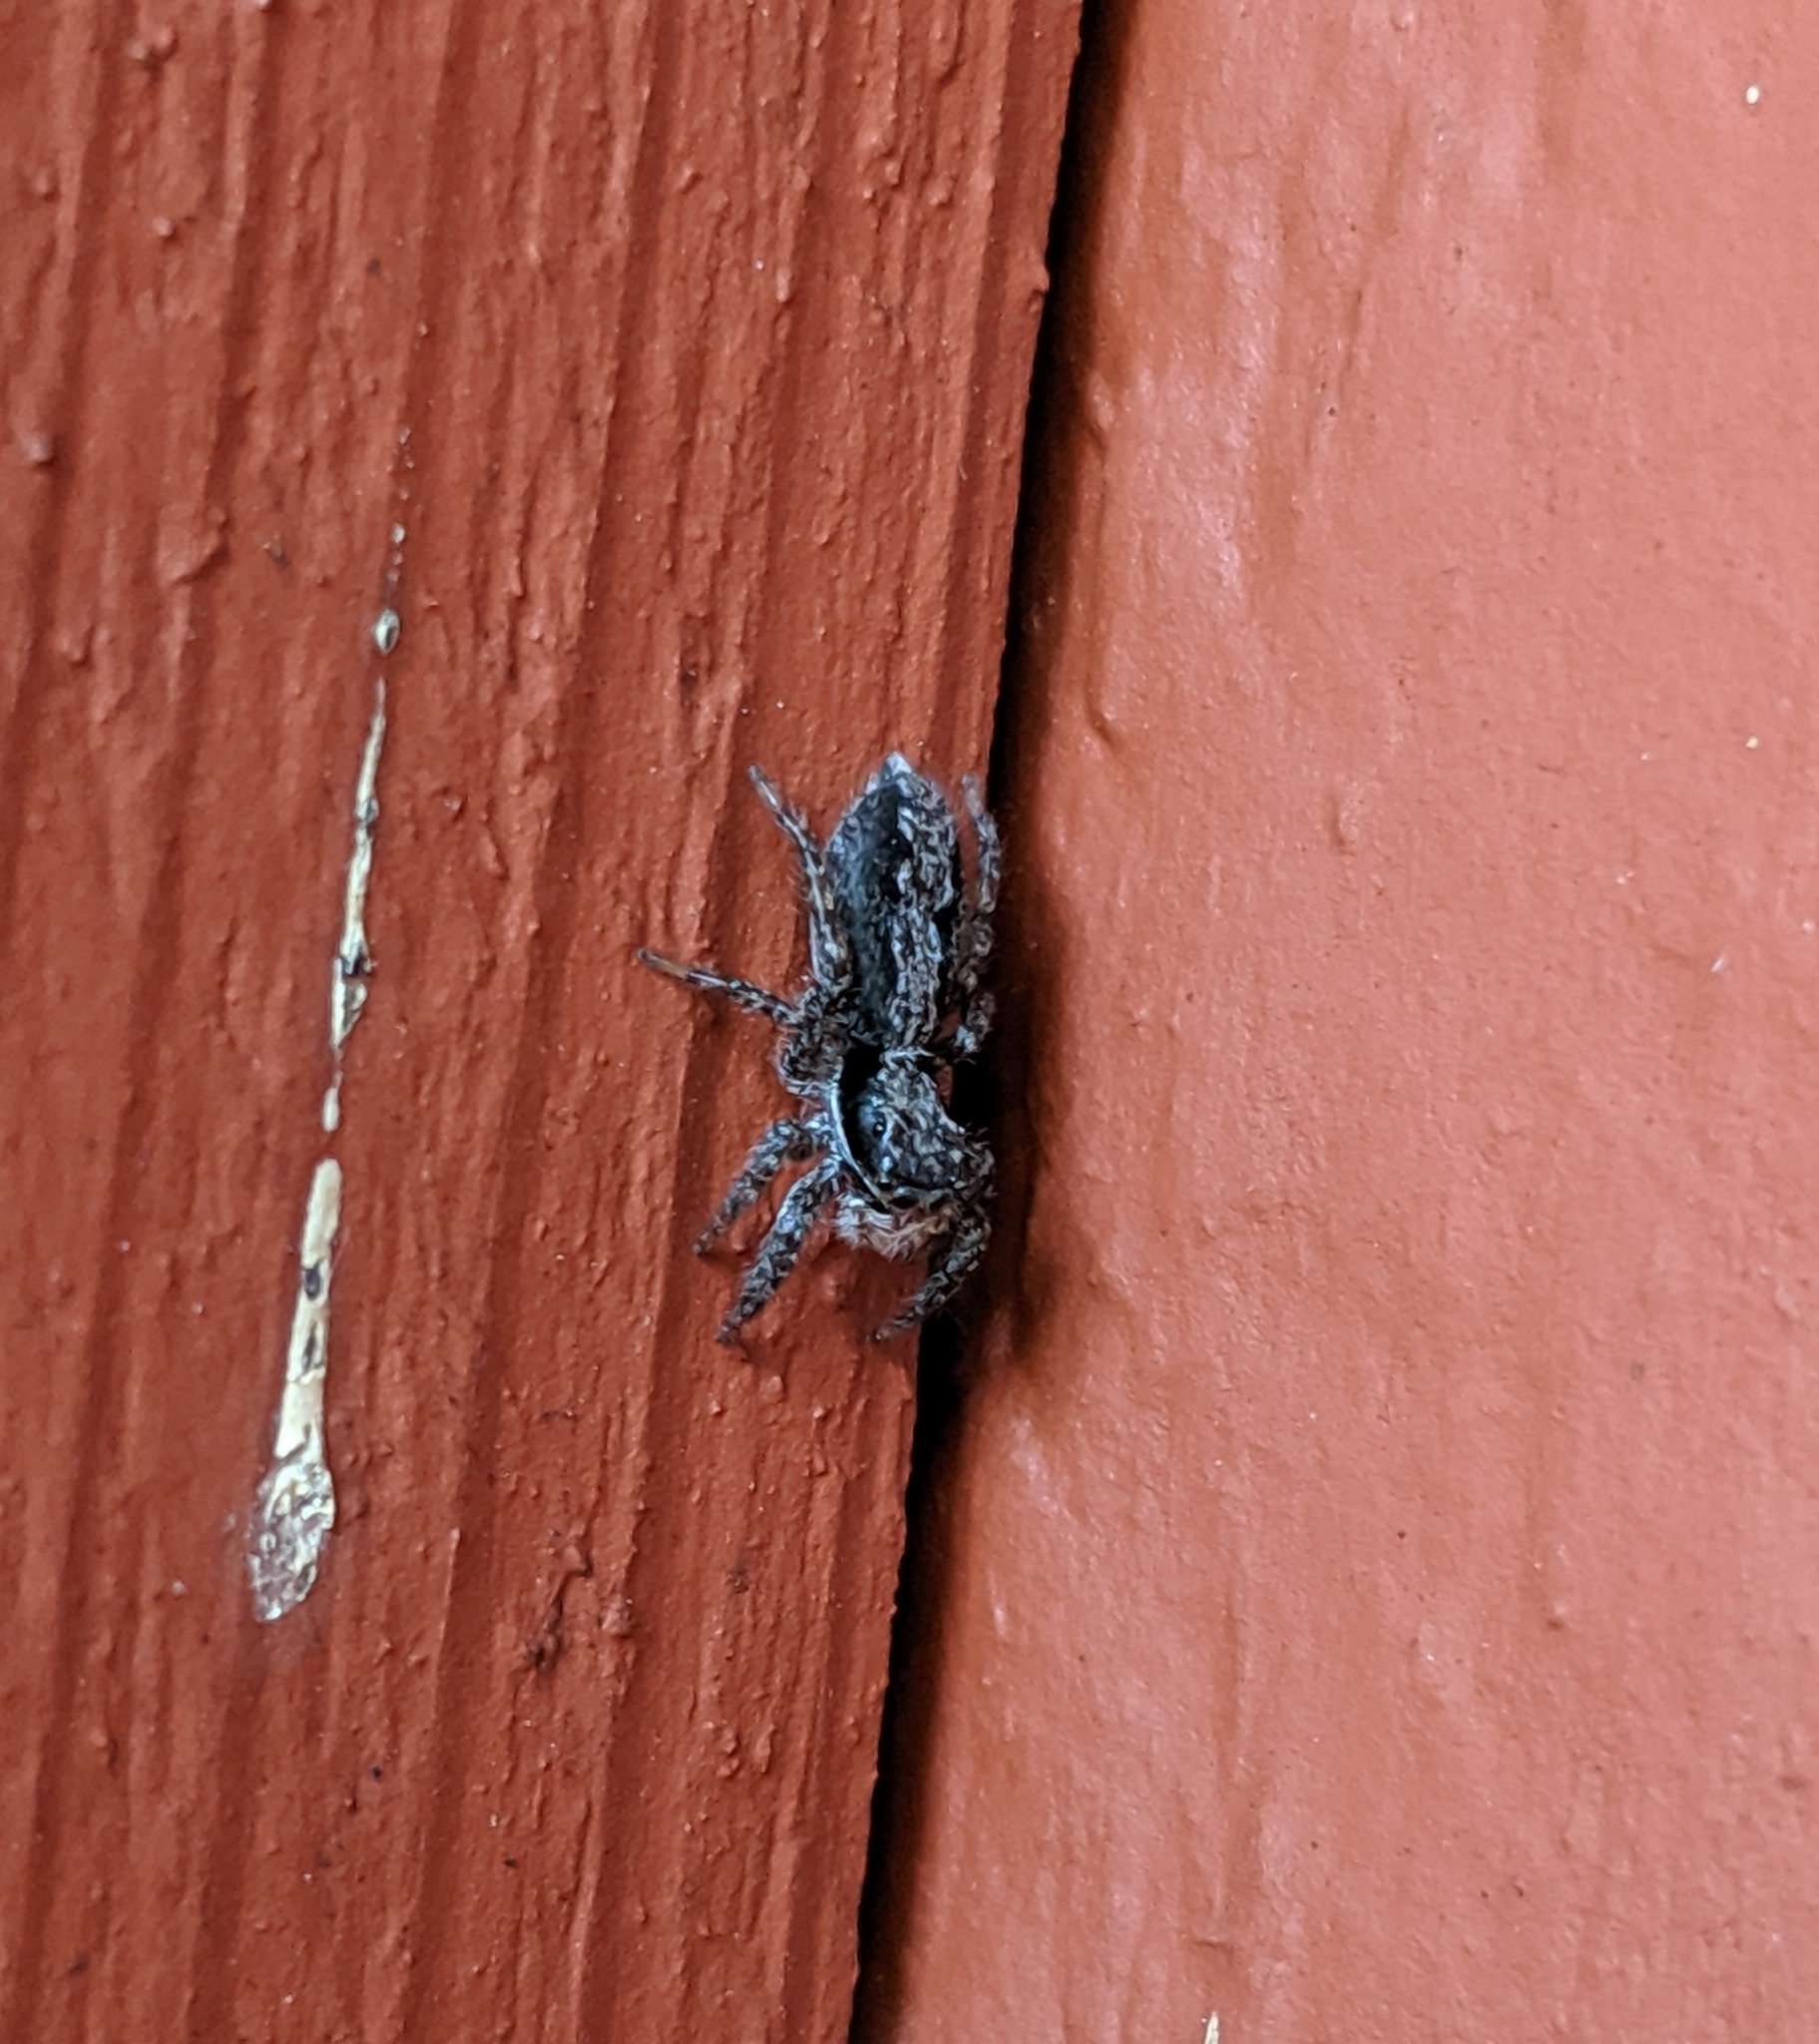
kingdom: Animalia
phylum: Arthropoda
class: Arachnida
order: Araneae
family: Salticidae
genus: Platycryptus
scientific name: Platycryptus californicus
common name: Jumping spiders
